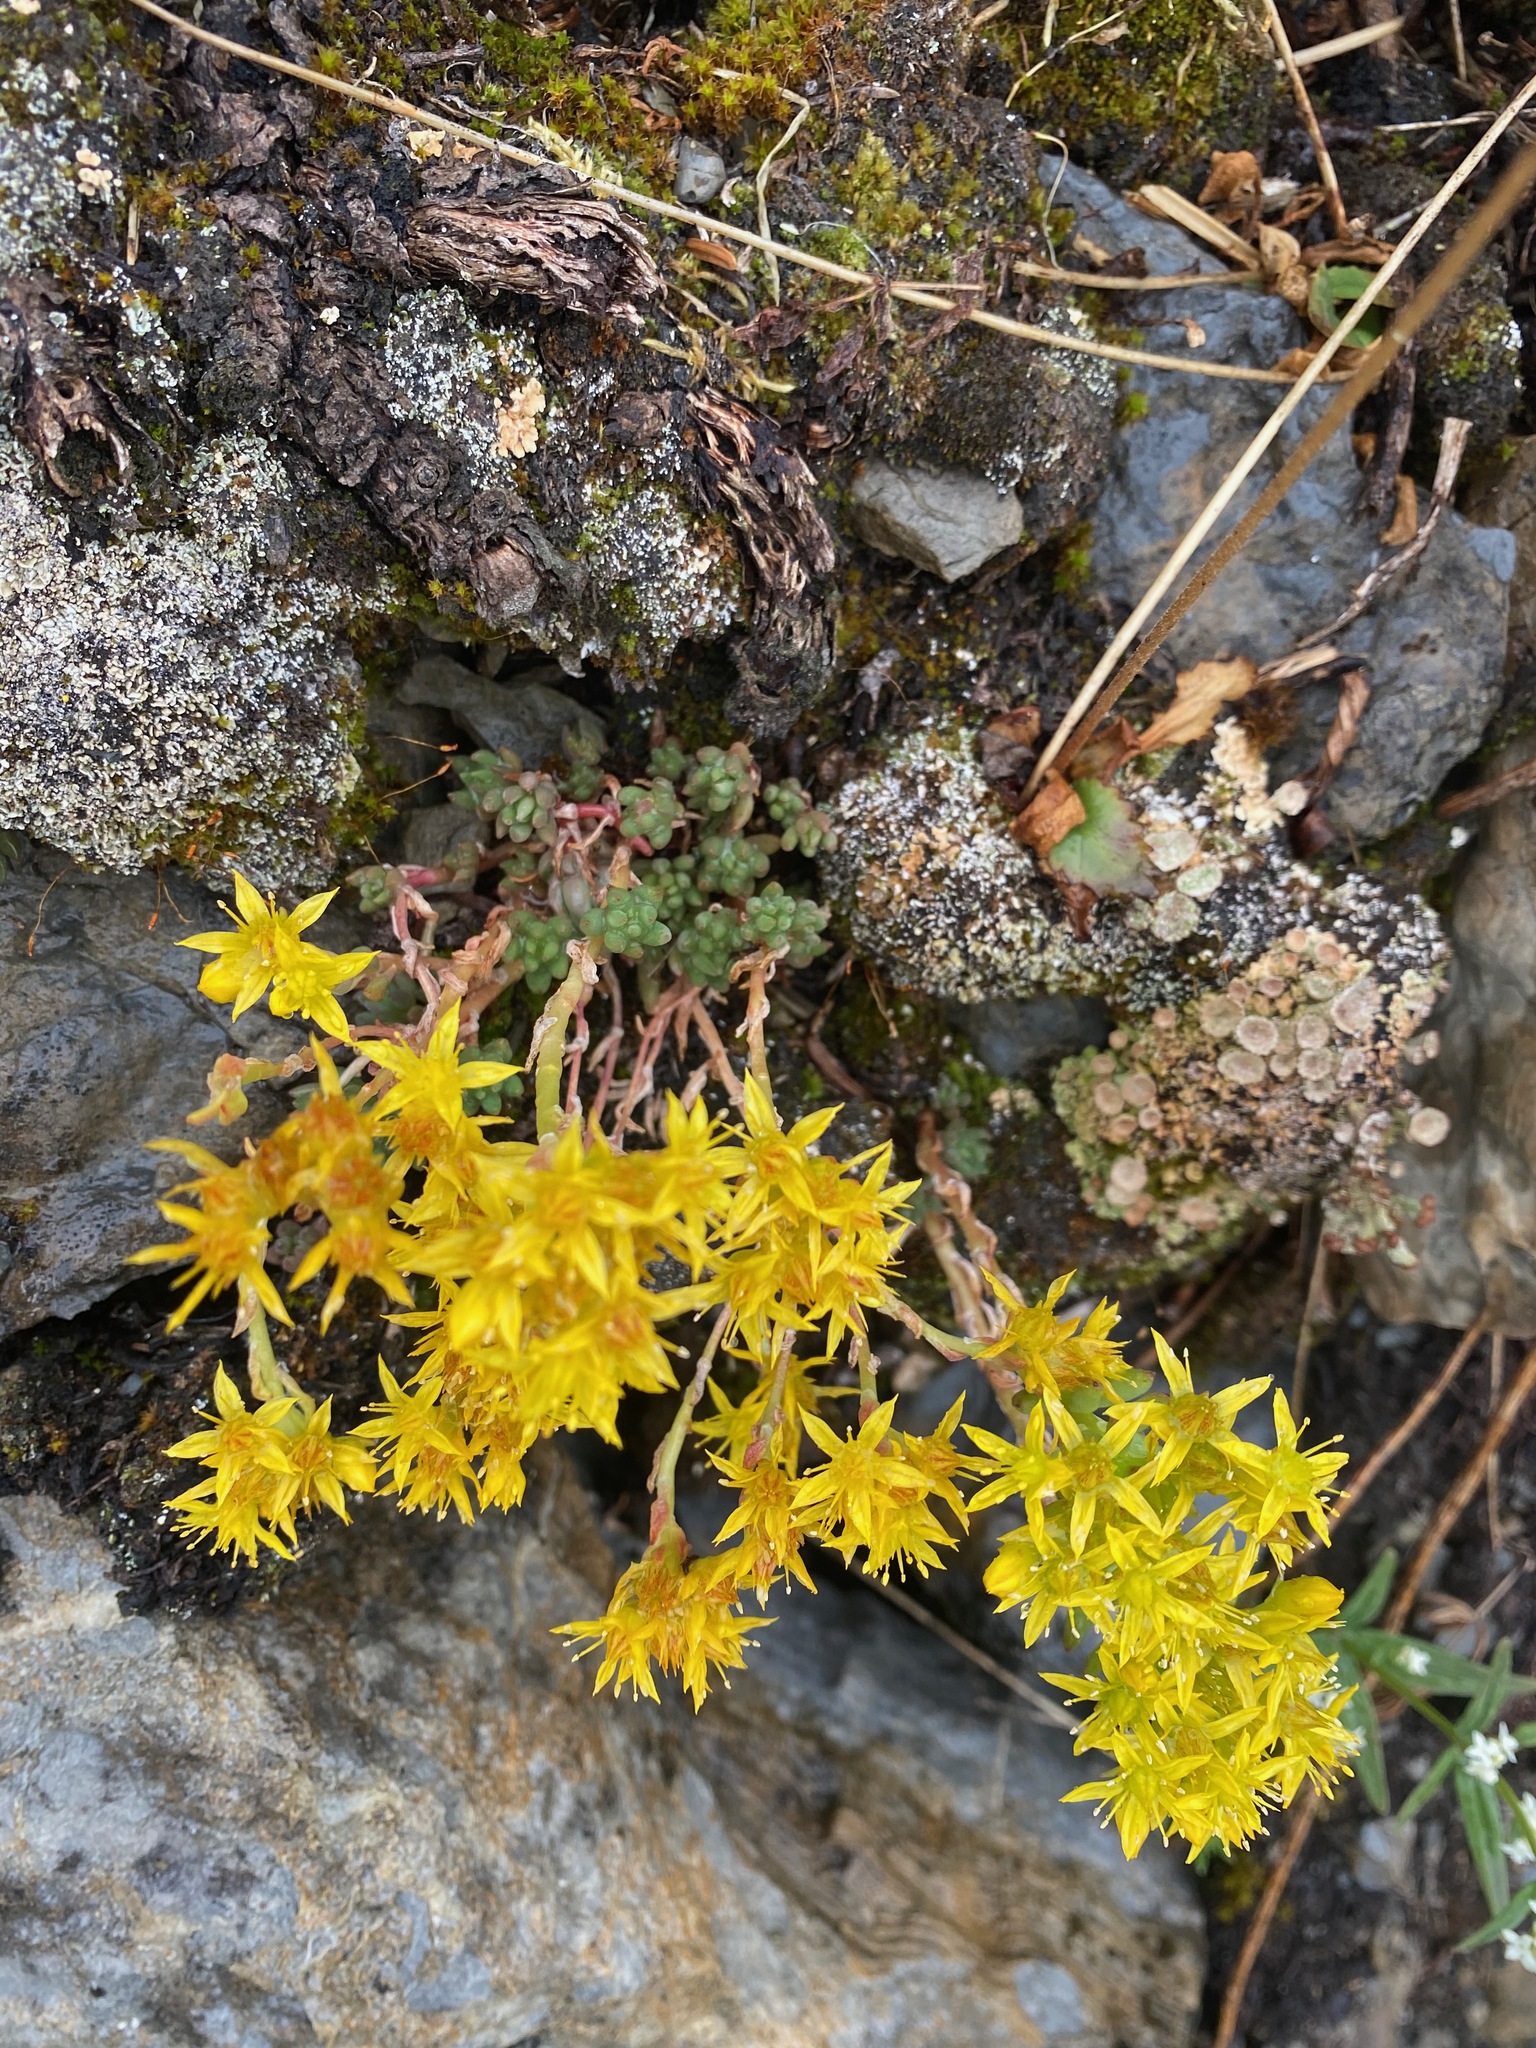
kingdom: Plantae
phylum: Tracheophyta
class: Magnoliopsida
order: Saxifragales
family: Crassulaceae
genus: Sedum
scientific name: Sedum lanceolatum
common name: Common stonecrop
